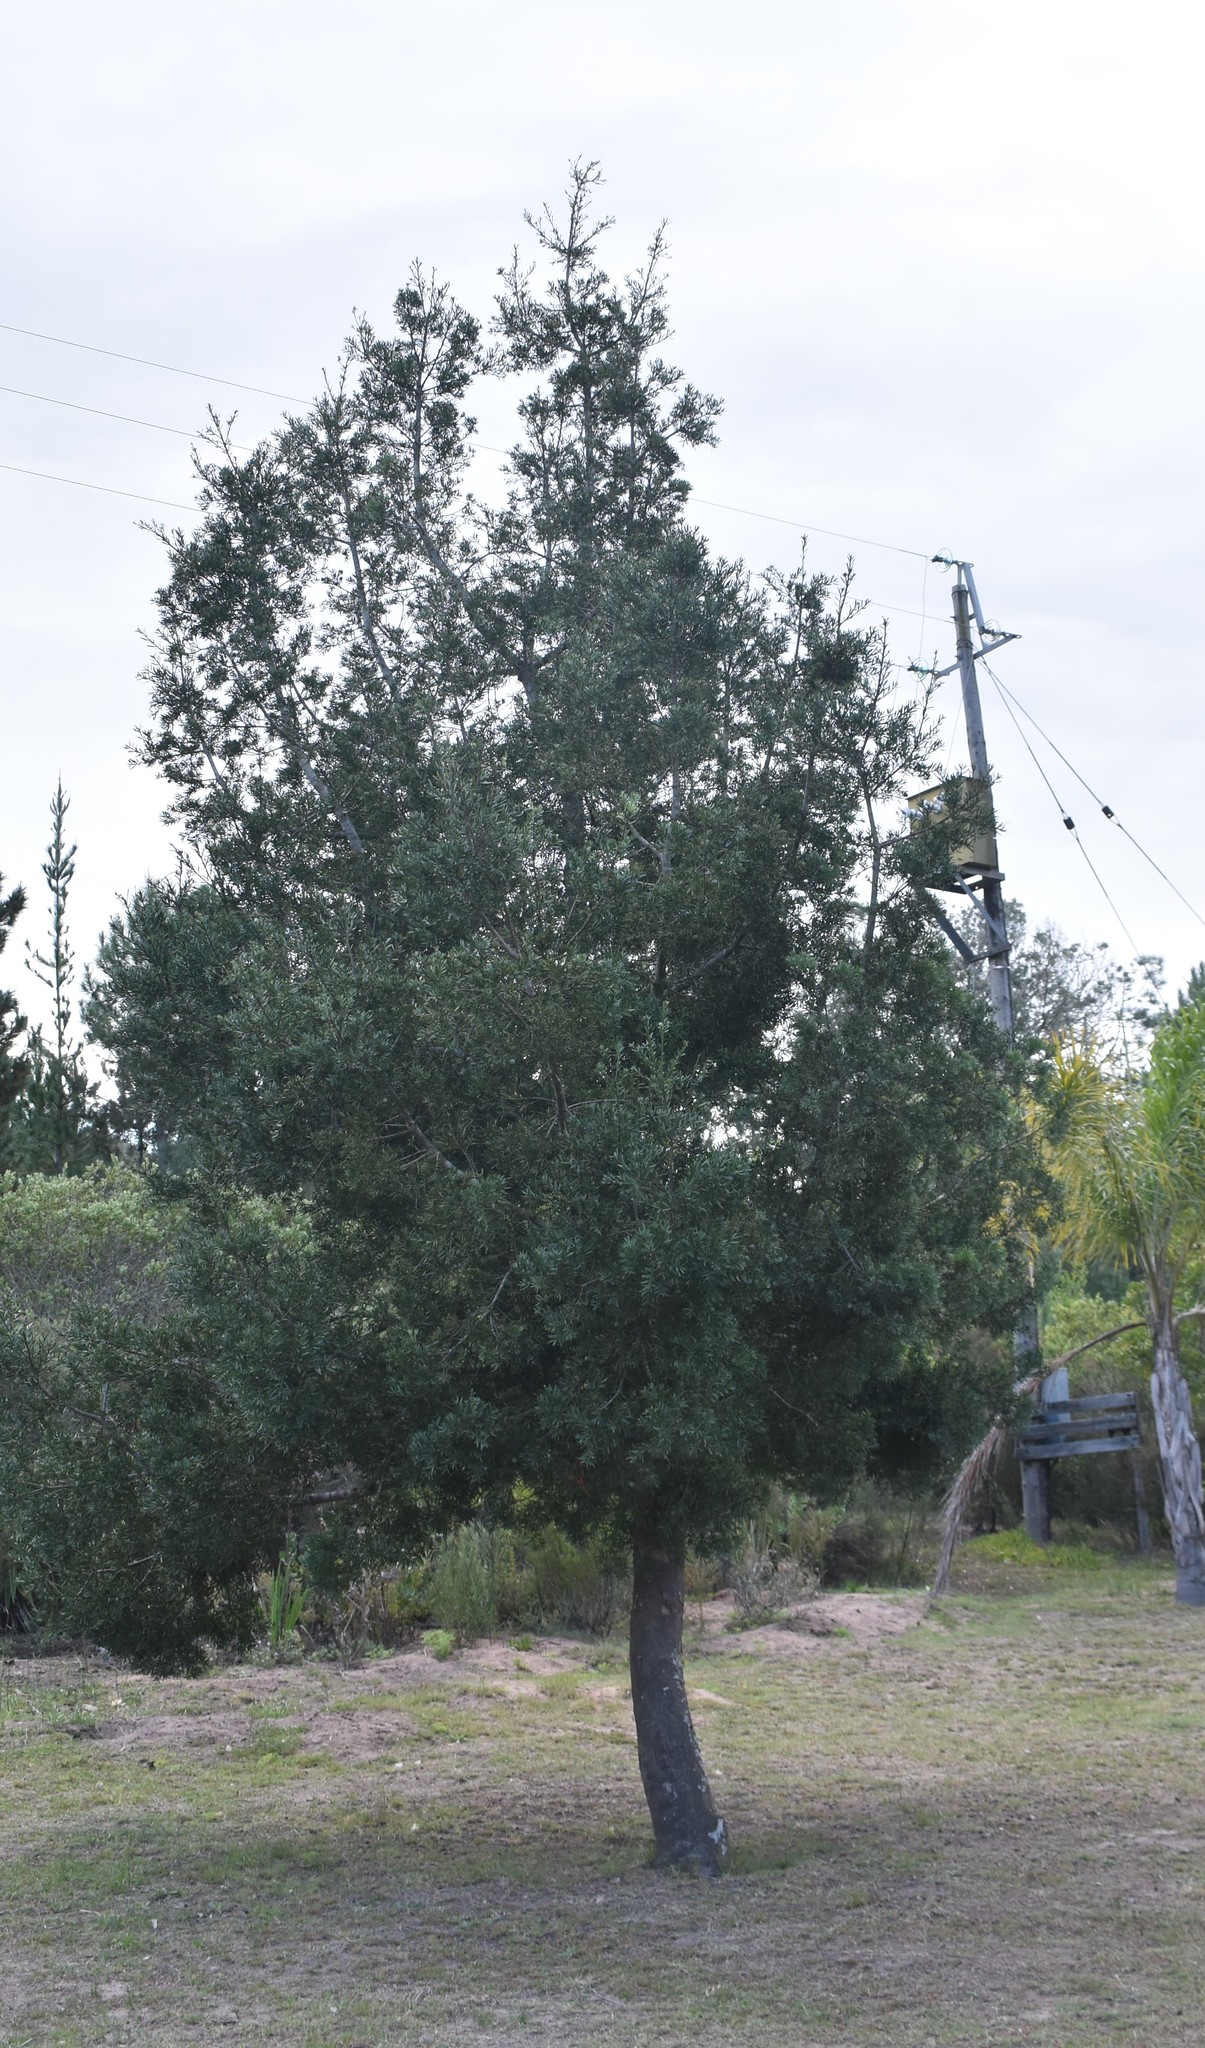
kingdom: Plantae
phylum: Tracheophyta
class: Pinopsida
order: Pinales
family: Podocarpaceae
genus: Afrocarpus
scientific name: Afrocarpus falcatus
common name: Bastard yellowwood
